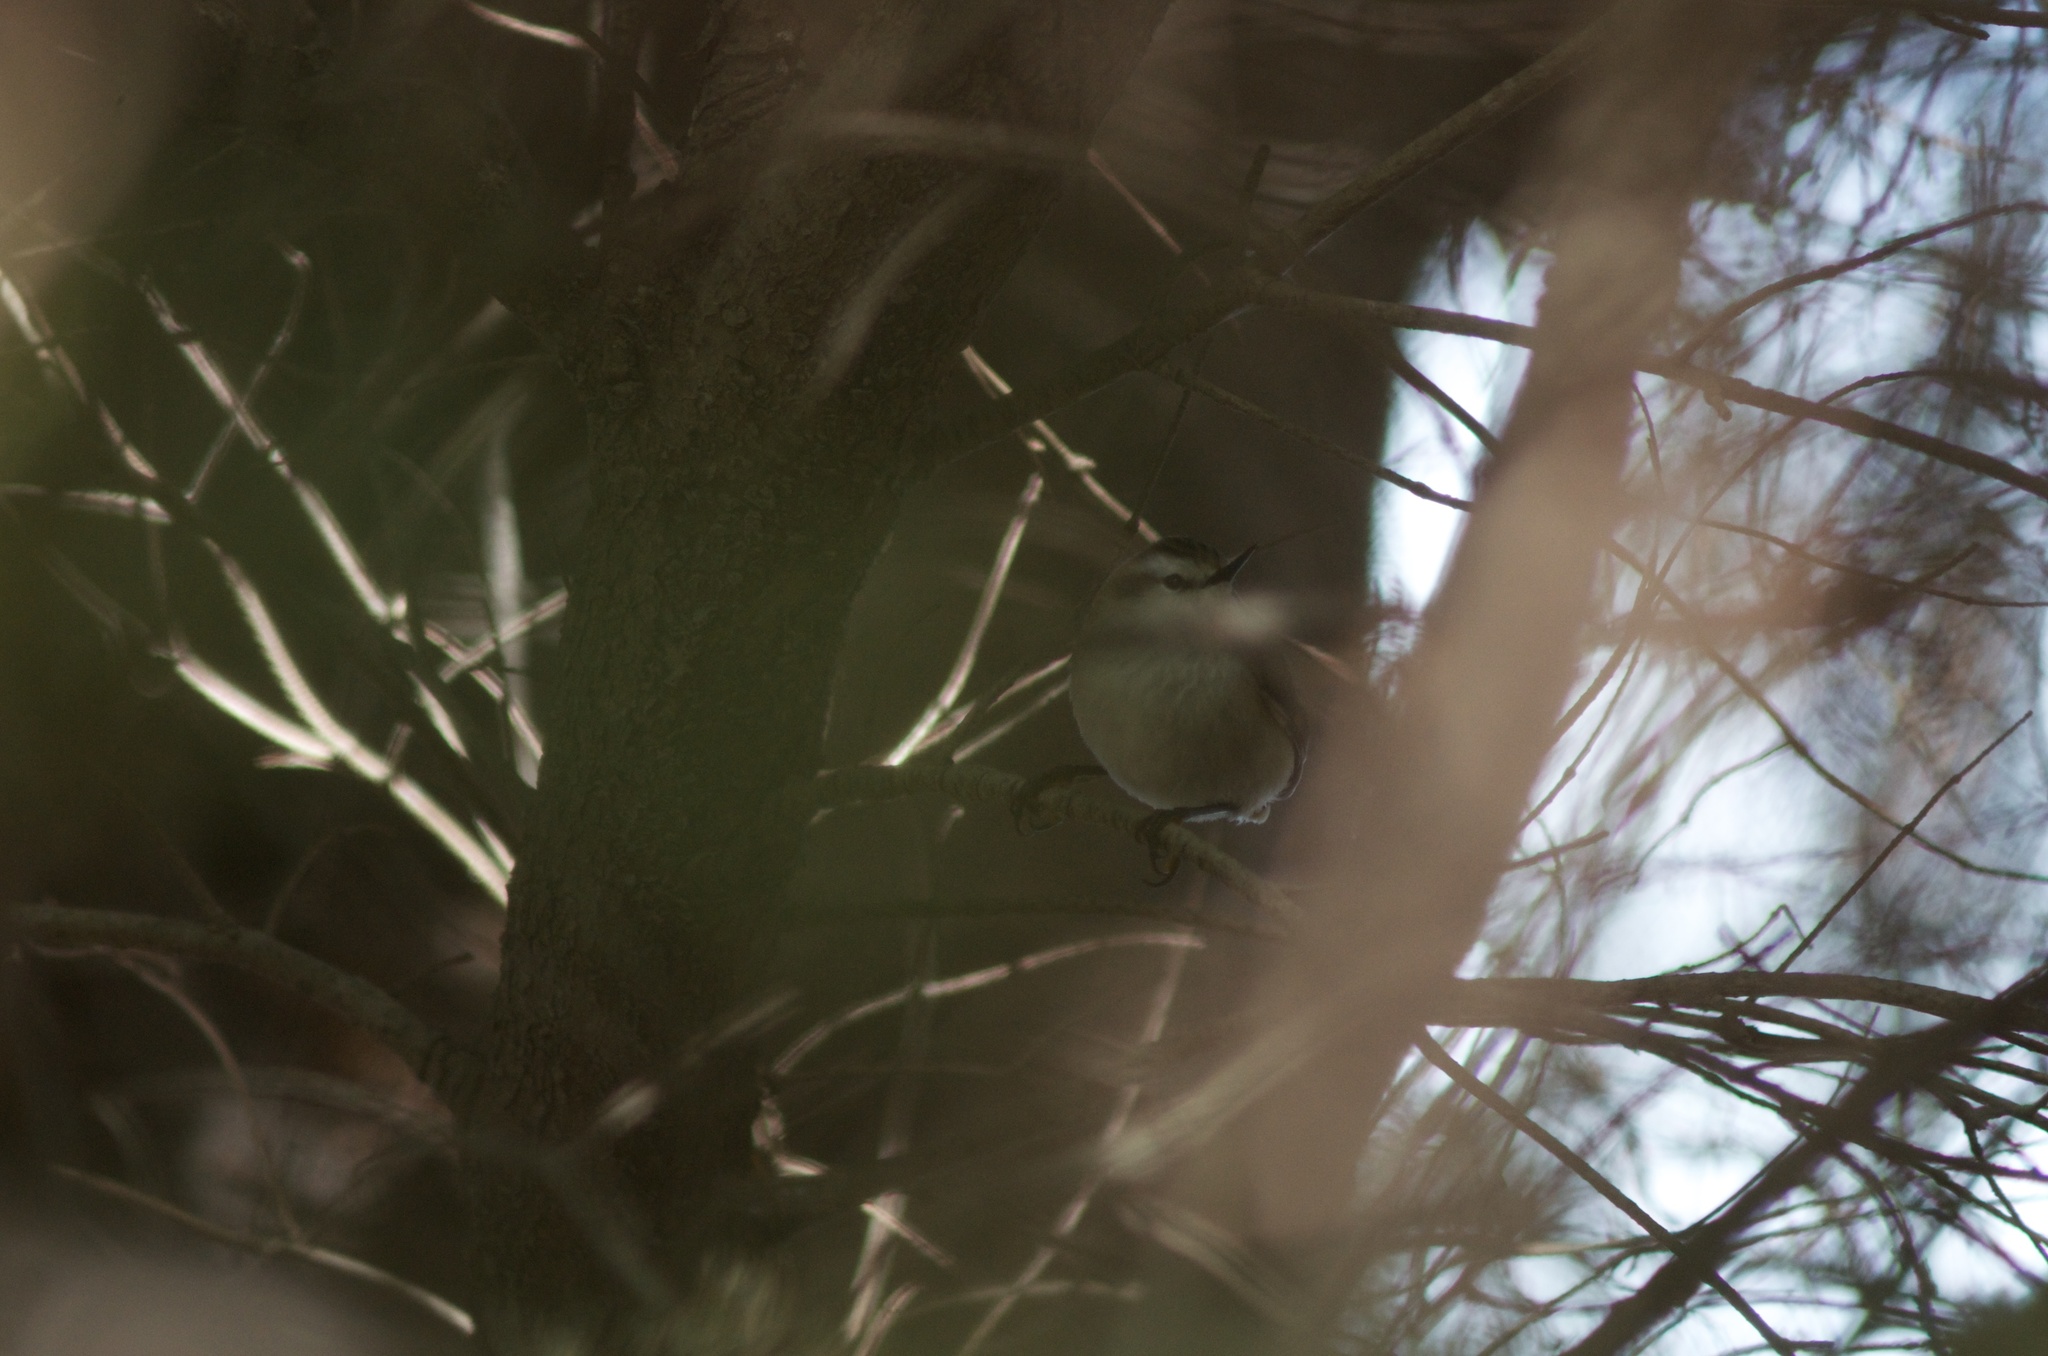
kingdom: Animalia
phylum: Chordata
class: Aves
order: Passeriformes
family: Acanthisittidae
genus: Acanthisitta
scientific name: Acanthisitta chloris
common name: Rifleman
